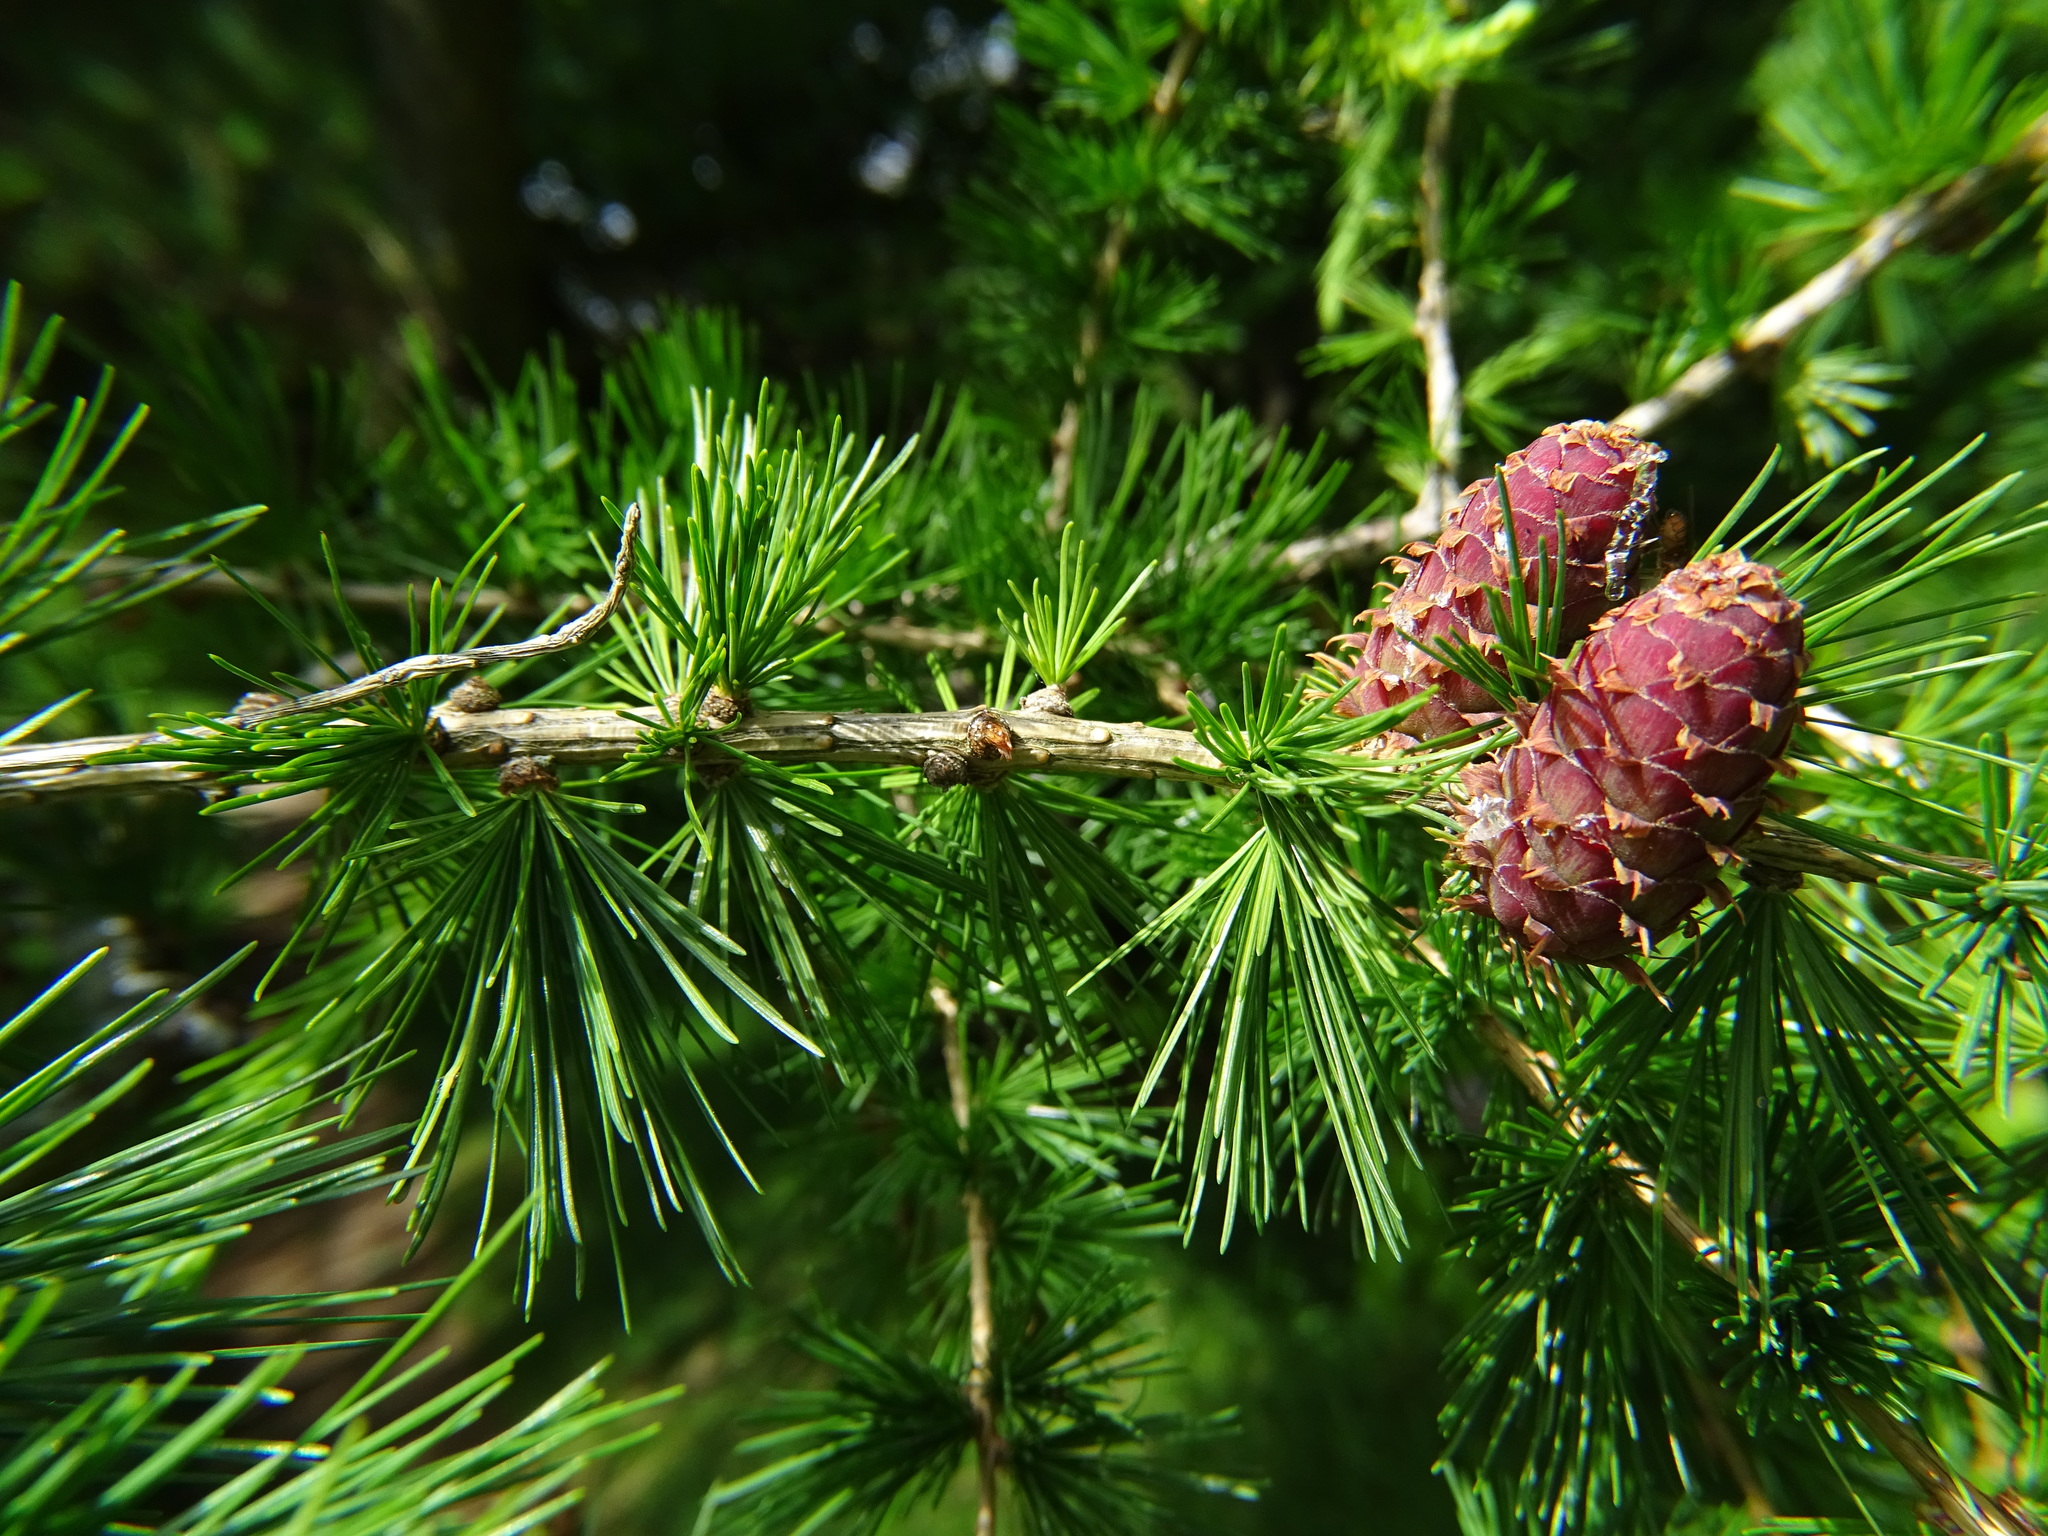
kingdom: Plantae
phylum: Tracheophyta
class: Pinopsida
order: Pinales
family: Pinaceae
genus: Larix
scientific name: Larix decidua
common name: European larch
